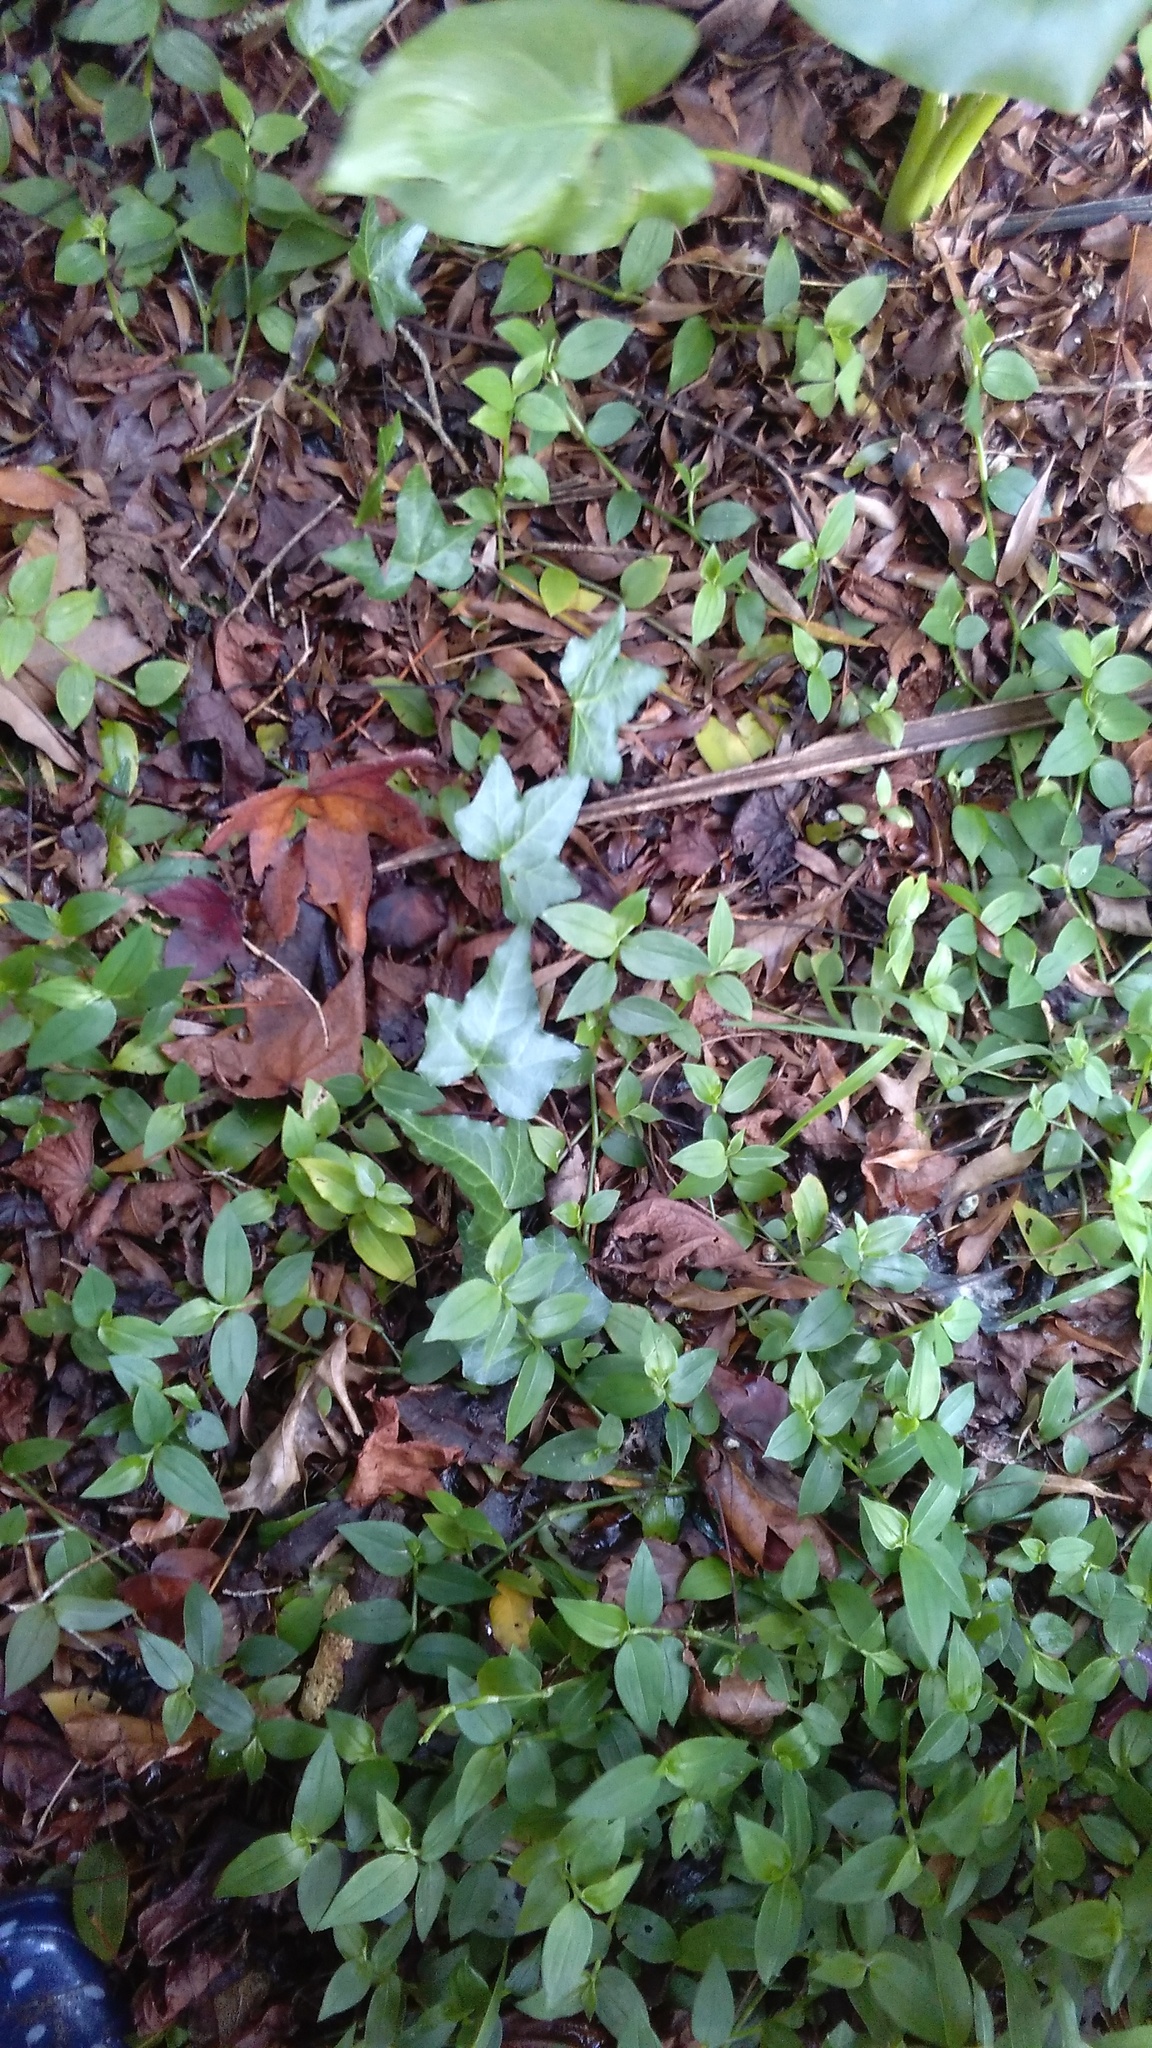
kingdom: Plantae
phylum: Tracheophyta
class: Magnoliopsida
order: Apiales
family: Araliaceae
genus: Hedera
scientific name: Hedera helix
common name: Ivy
